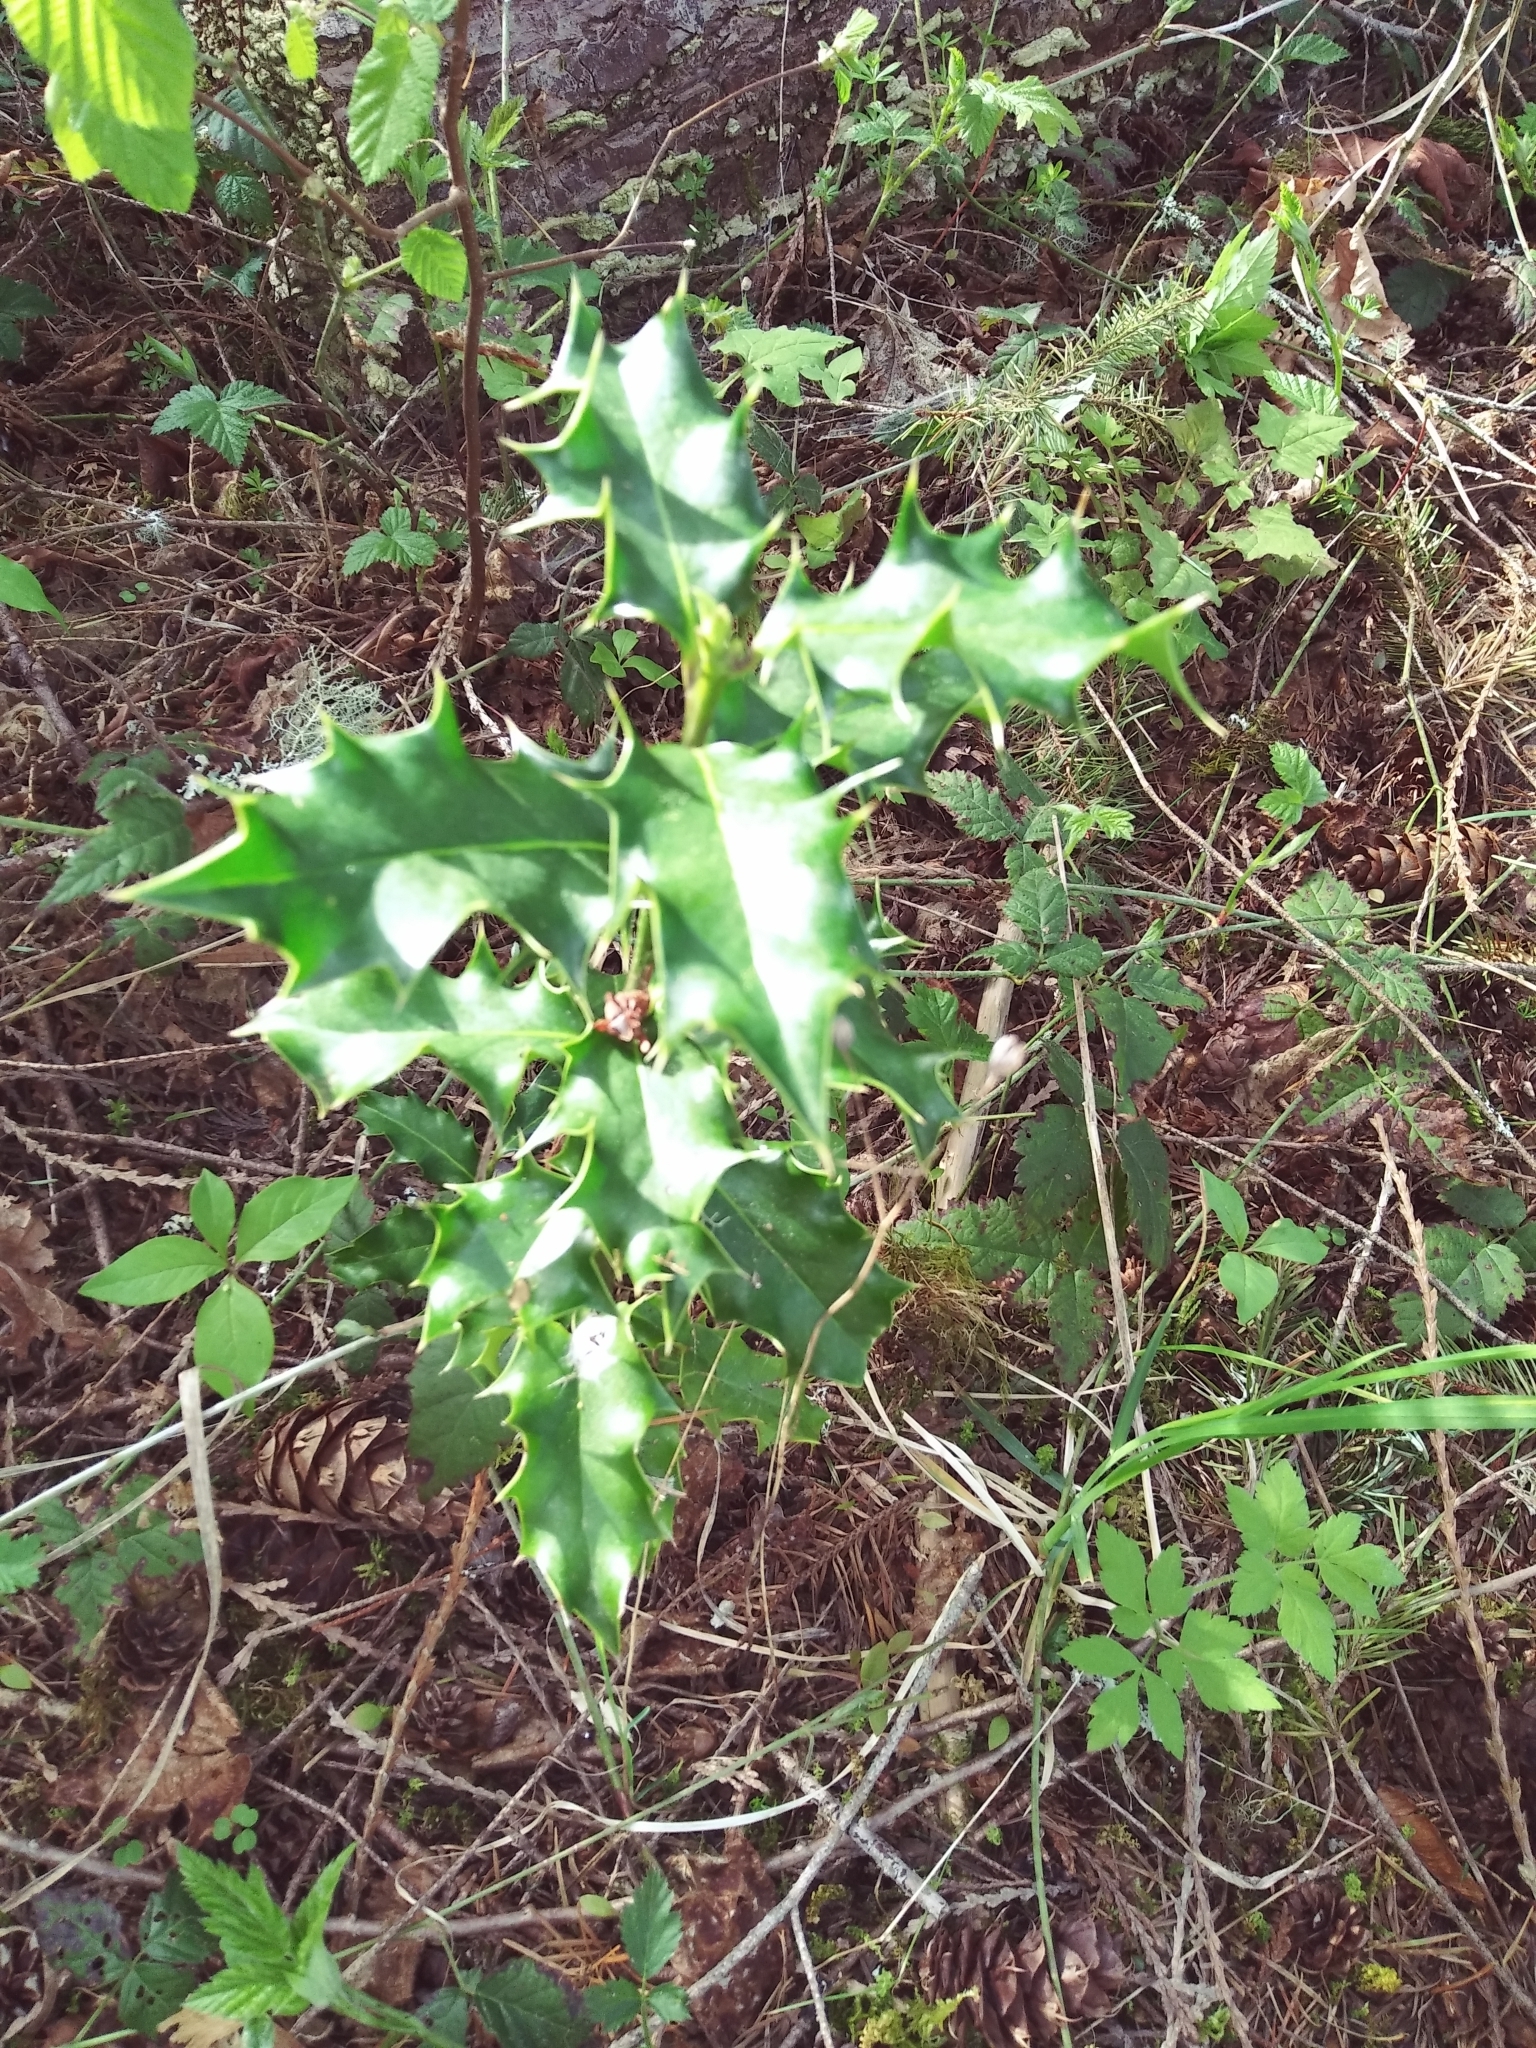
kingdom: Plantae
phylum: Tracheophyta
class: Magnoliopsida
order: Aquifoliales
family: Aquifoliaceae
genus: Ilex
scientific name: Ilex aquifolium
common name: English holly
